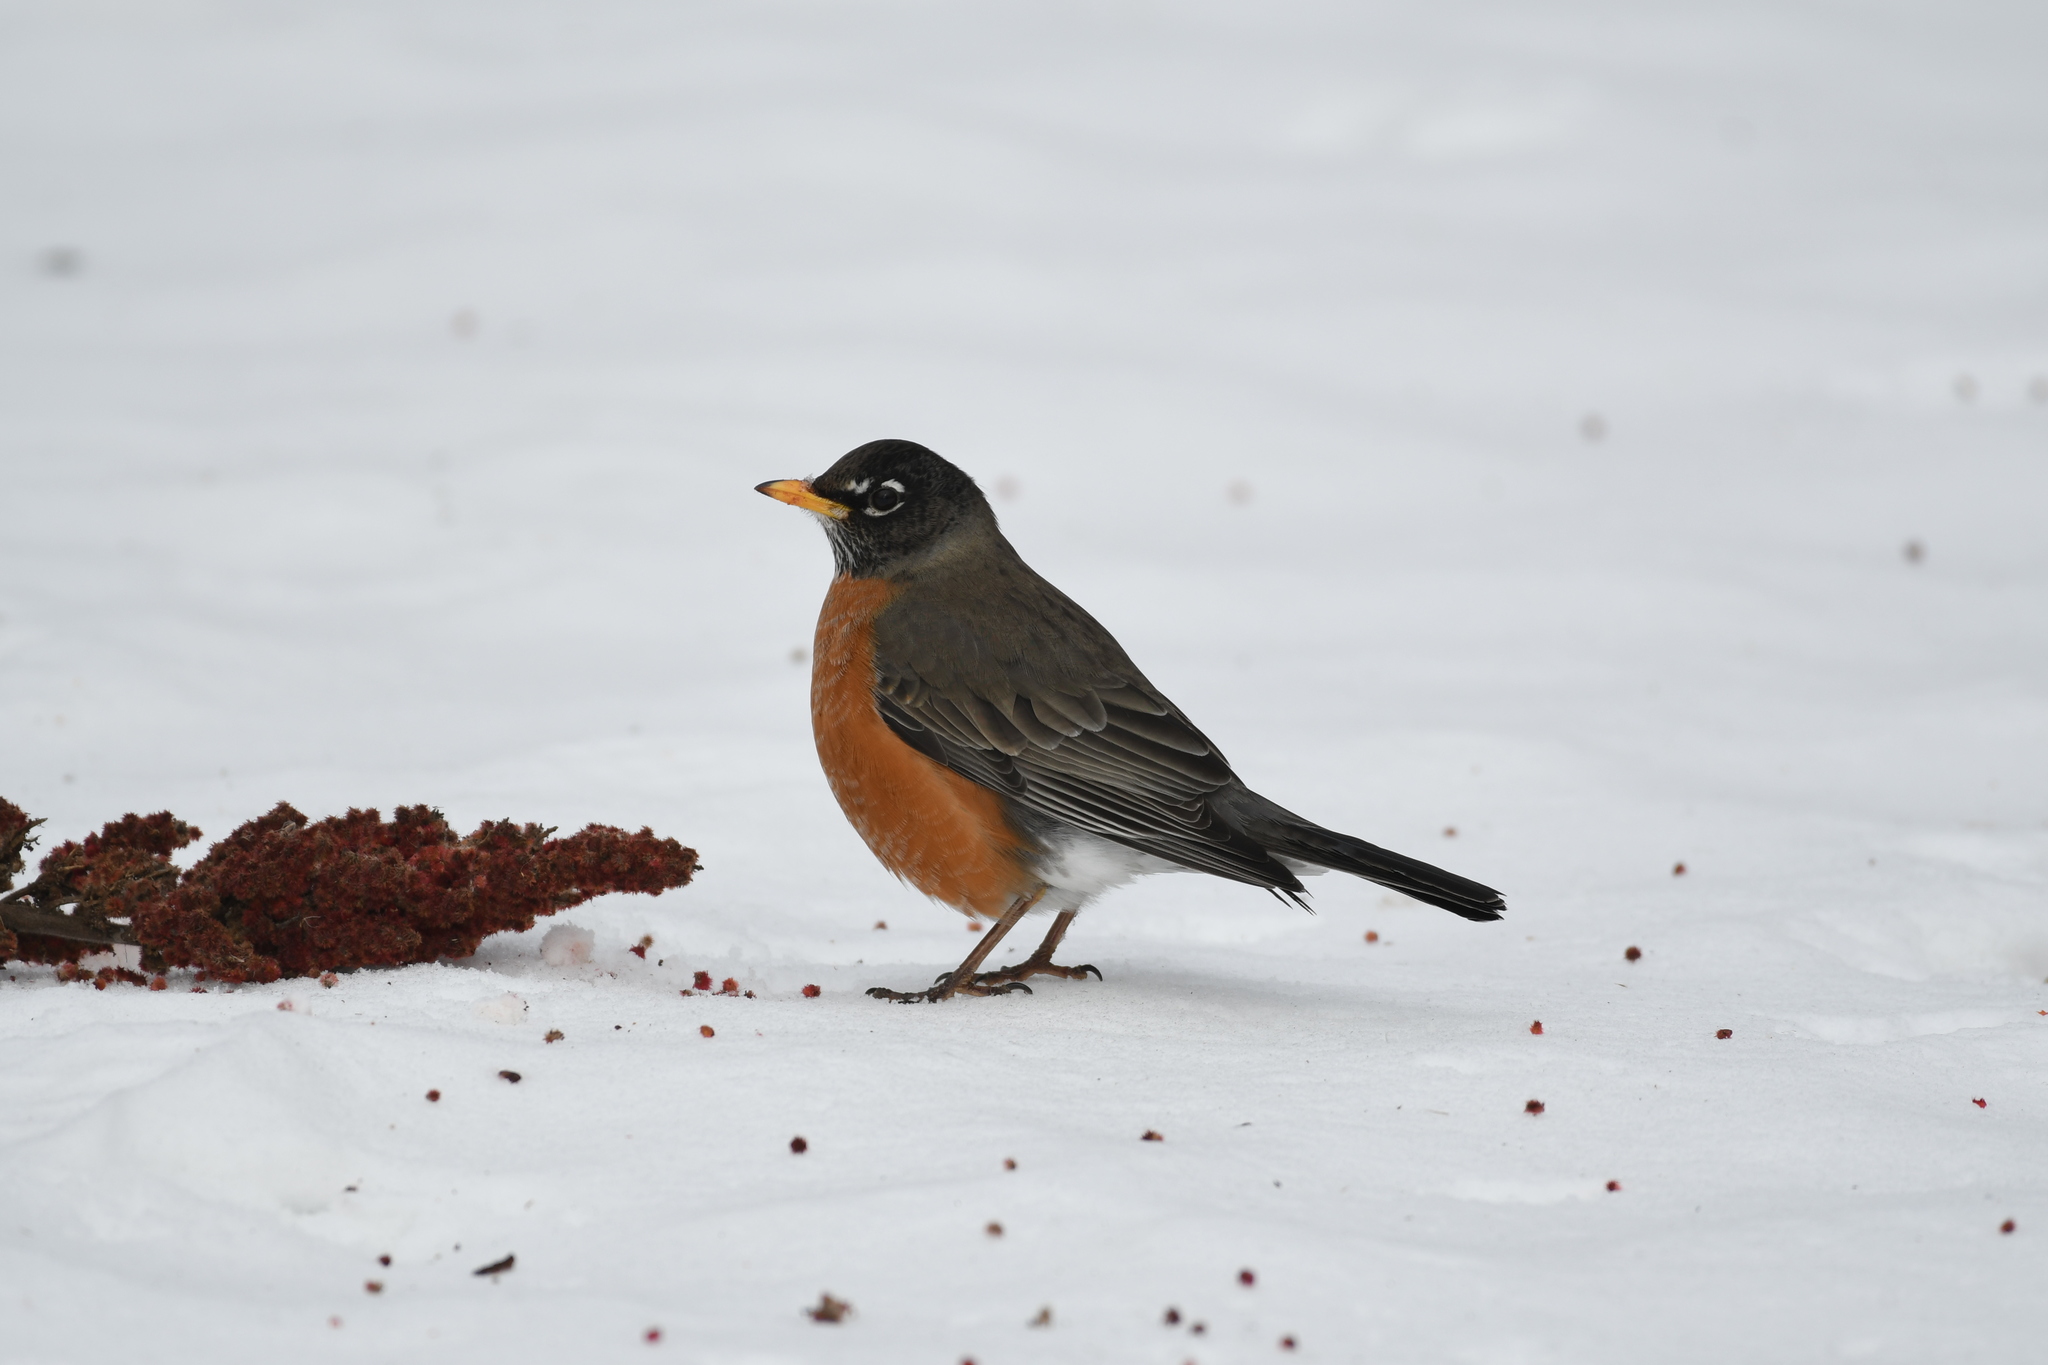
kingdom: Animalia
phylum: Chordata
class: Aves
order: Passeriformes
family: Turdidae
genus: Turdus
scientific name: Turdus migratorius
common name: American robin
